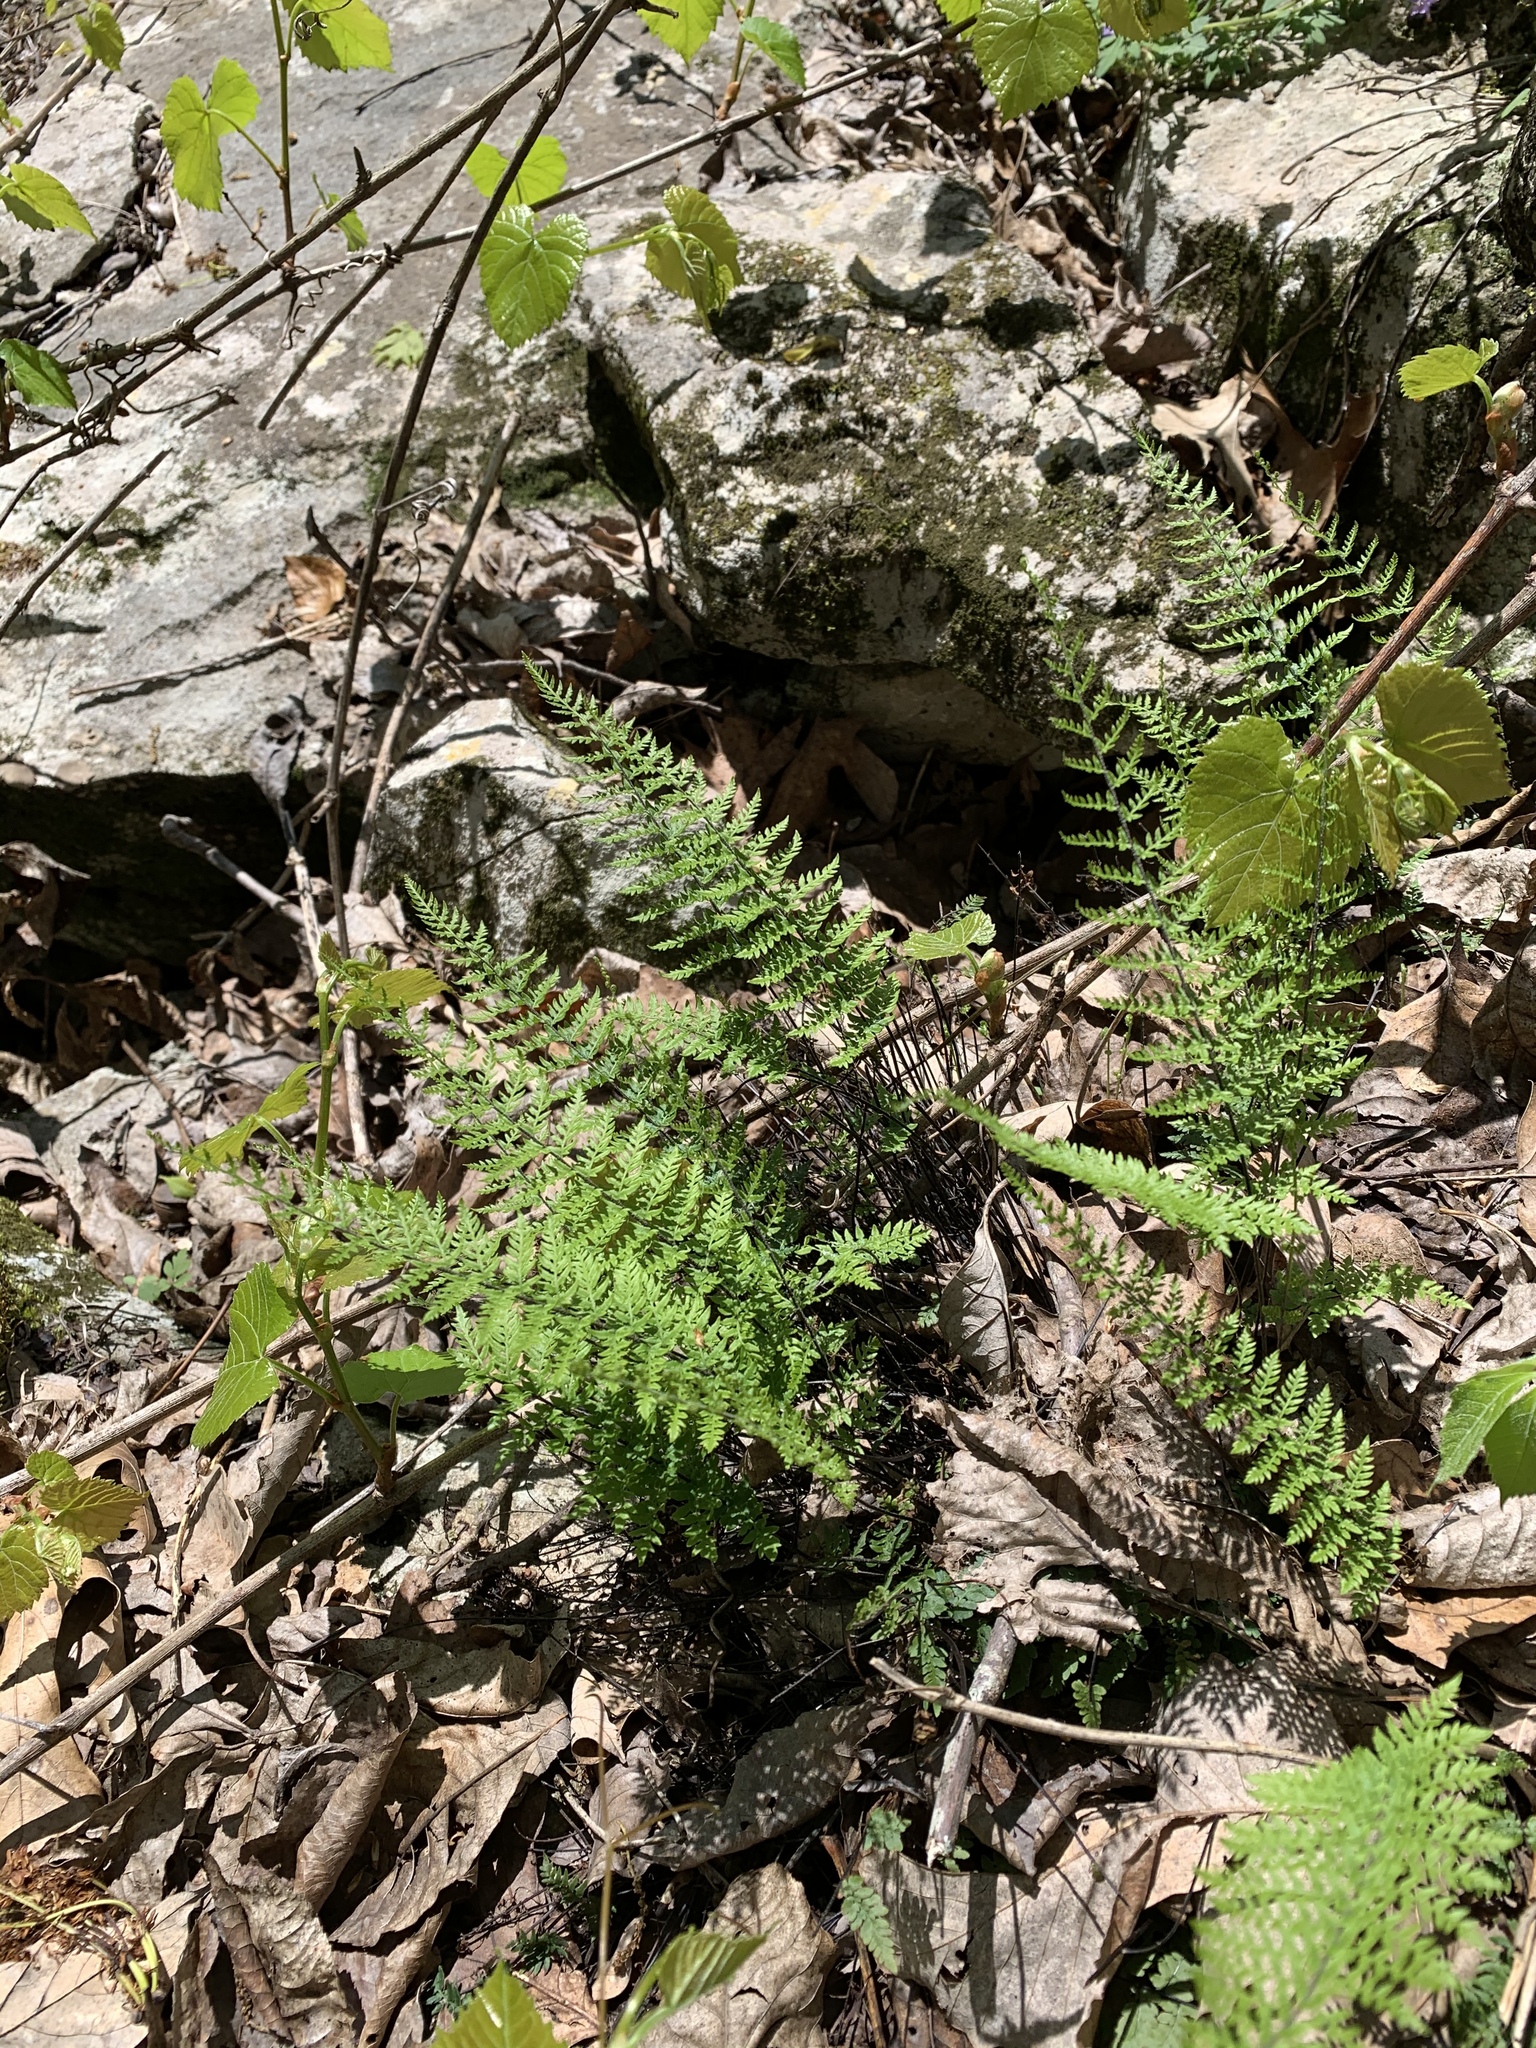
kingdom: Plantae
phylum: Tracheophyta
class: Polypodiopsida
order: Polypodiales
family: Pteridaceae
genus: Myriopteris
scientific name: Myriopteris alabamensis
